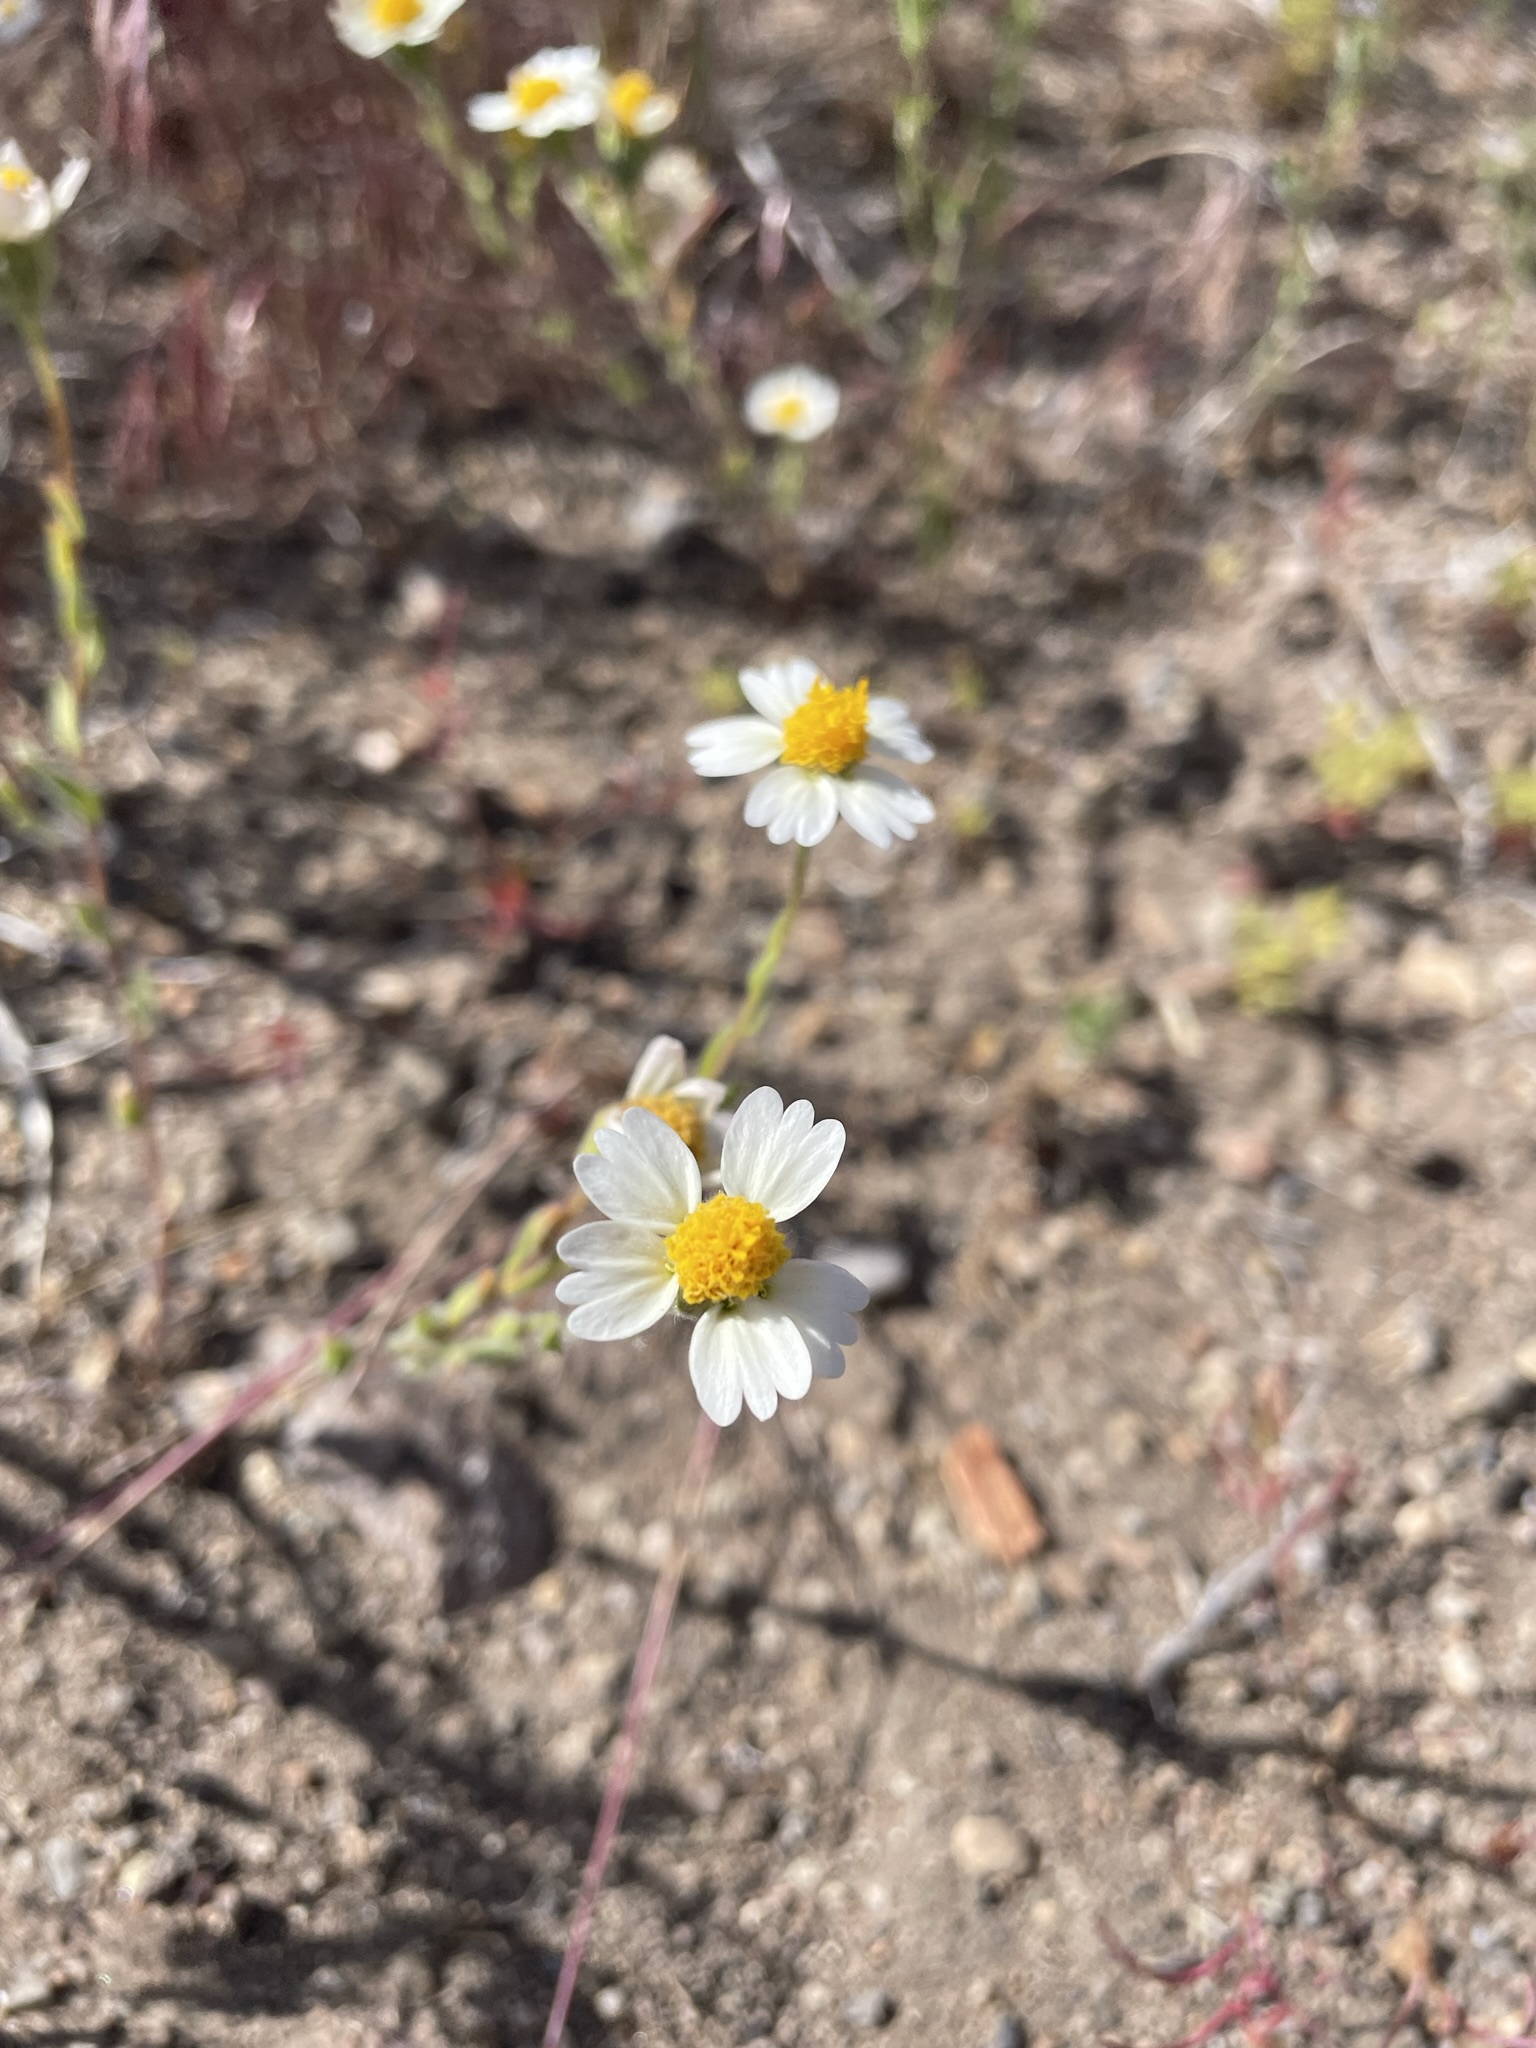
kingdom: Plantae
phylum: Tracheophyta
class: Magnoliopsida
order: Asterales
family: Asteraceae
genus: Layia
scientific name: Layia glandulosa
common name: White layia
